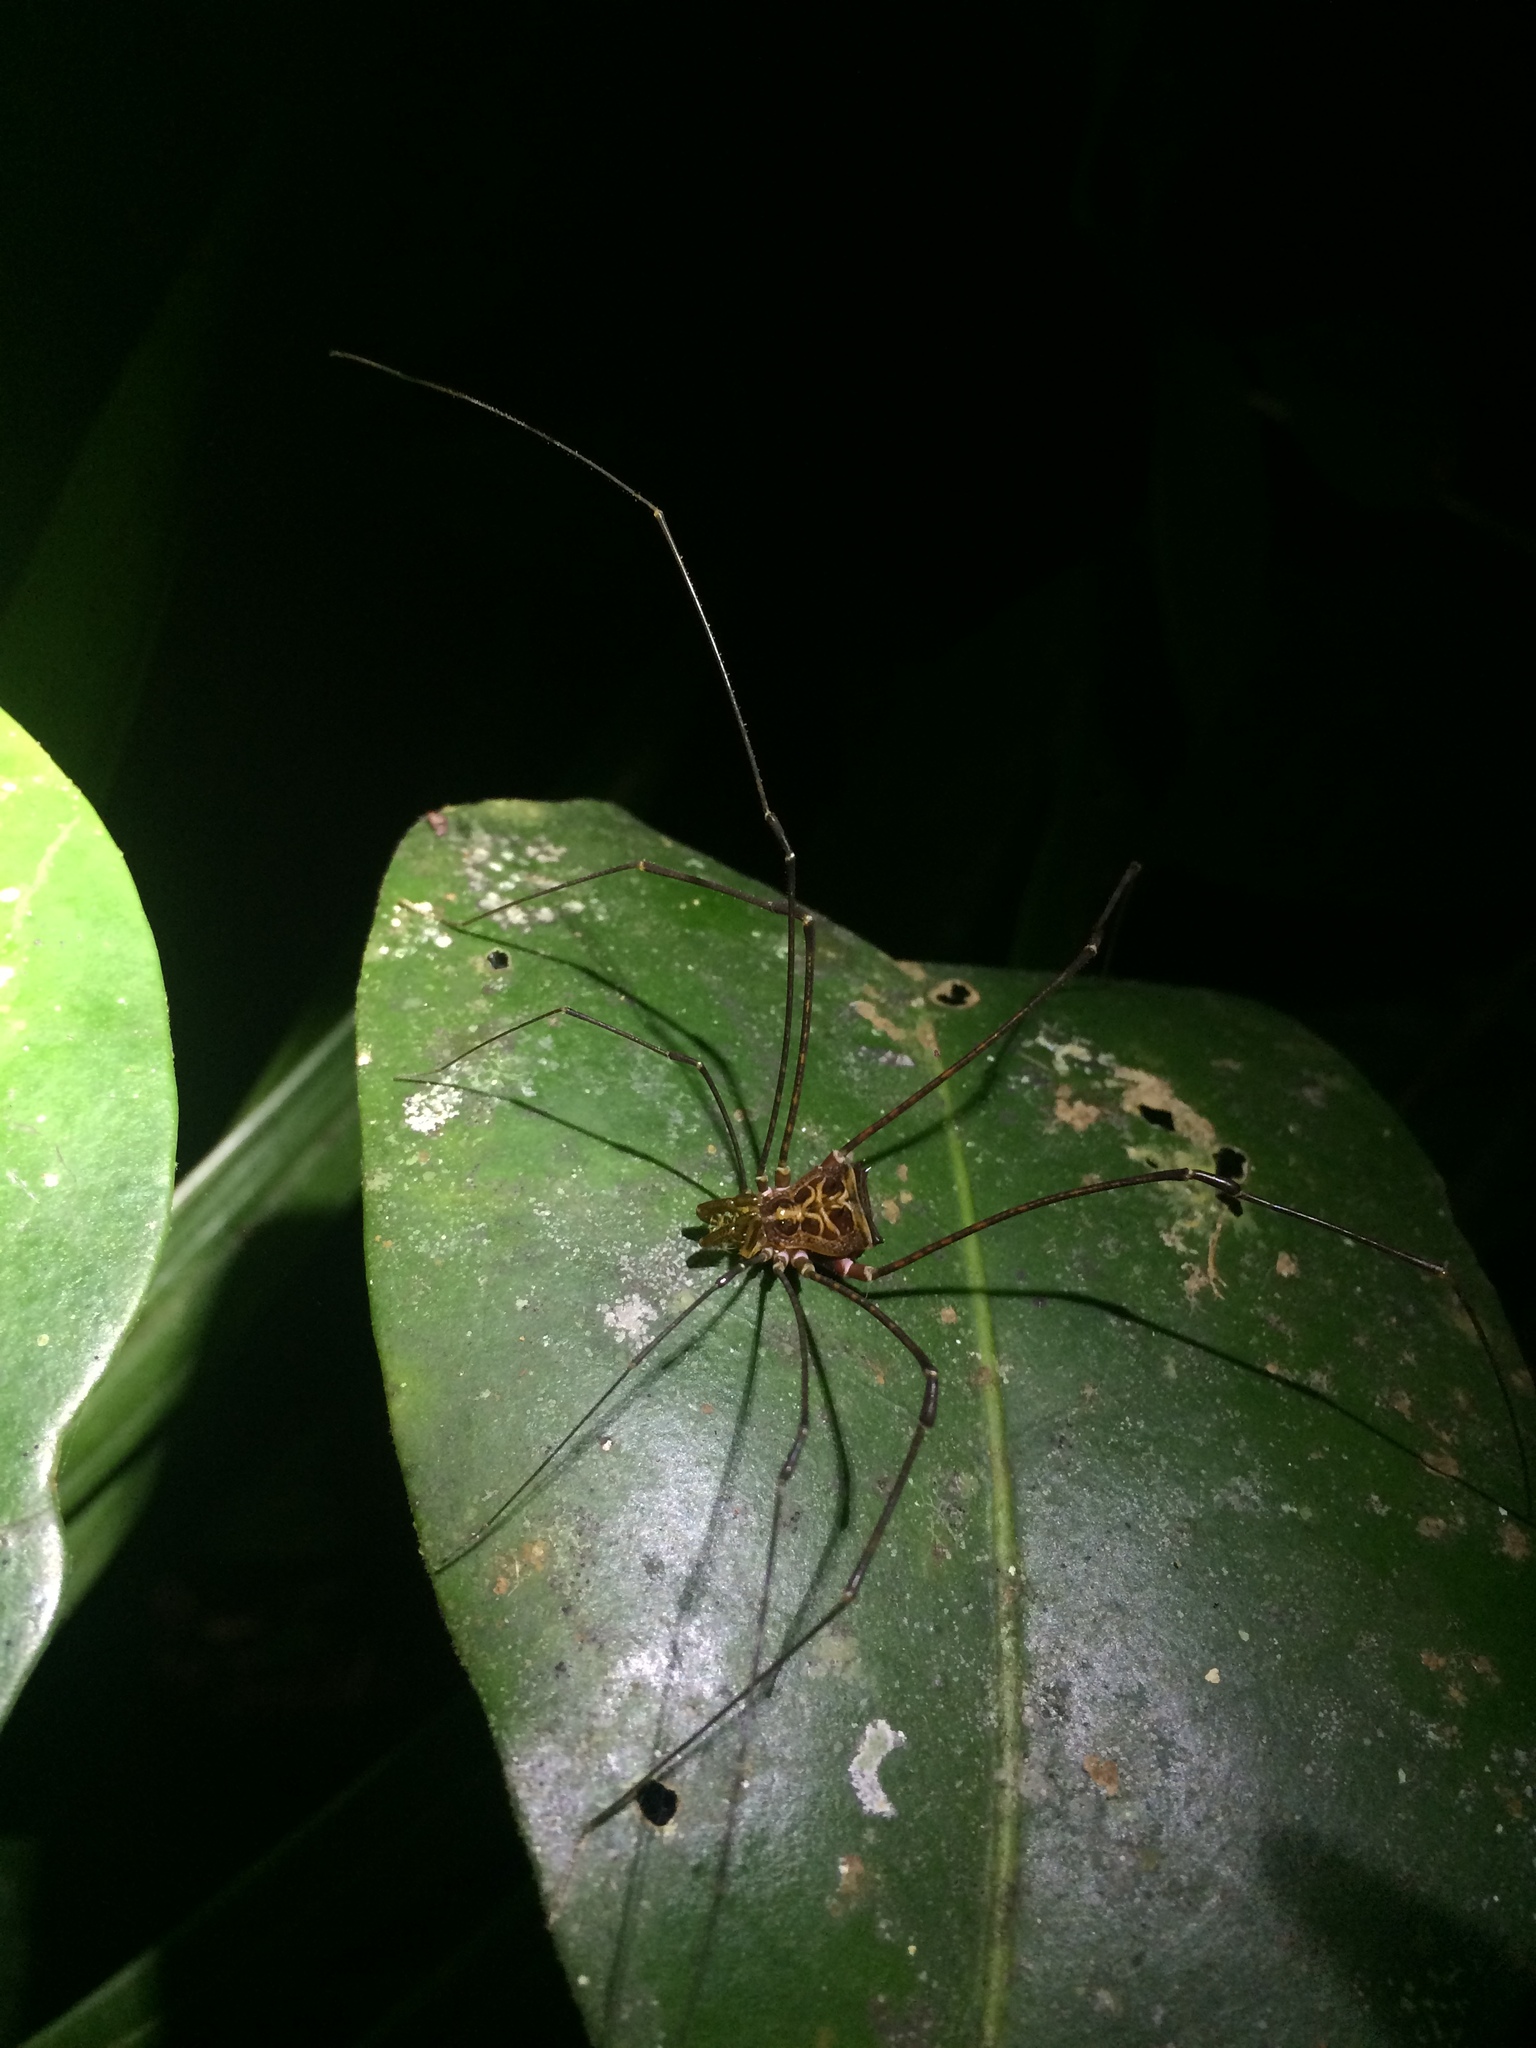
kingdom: Animalia
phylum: Arthropoda
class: Arachnida
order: Opiliones
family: Gonyleptidae
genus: Mitogoniella
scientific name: Mitogoniella modesta
